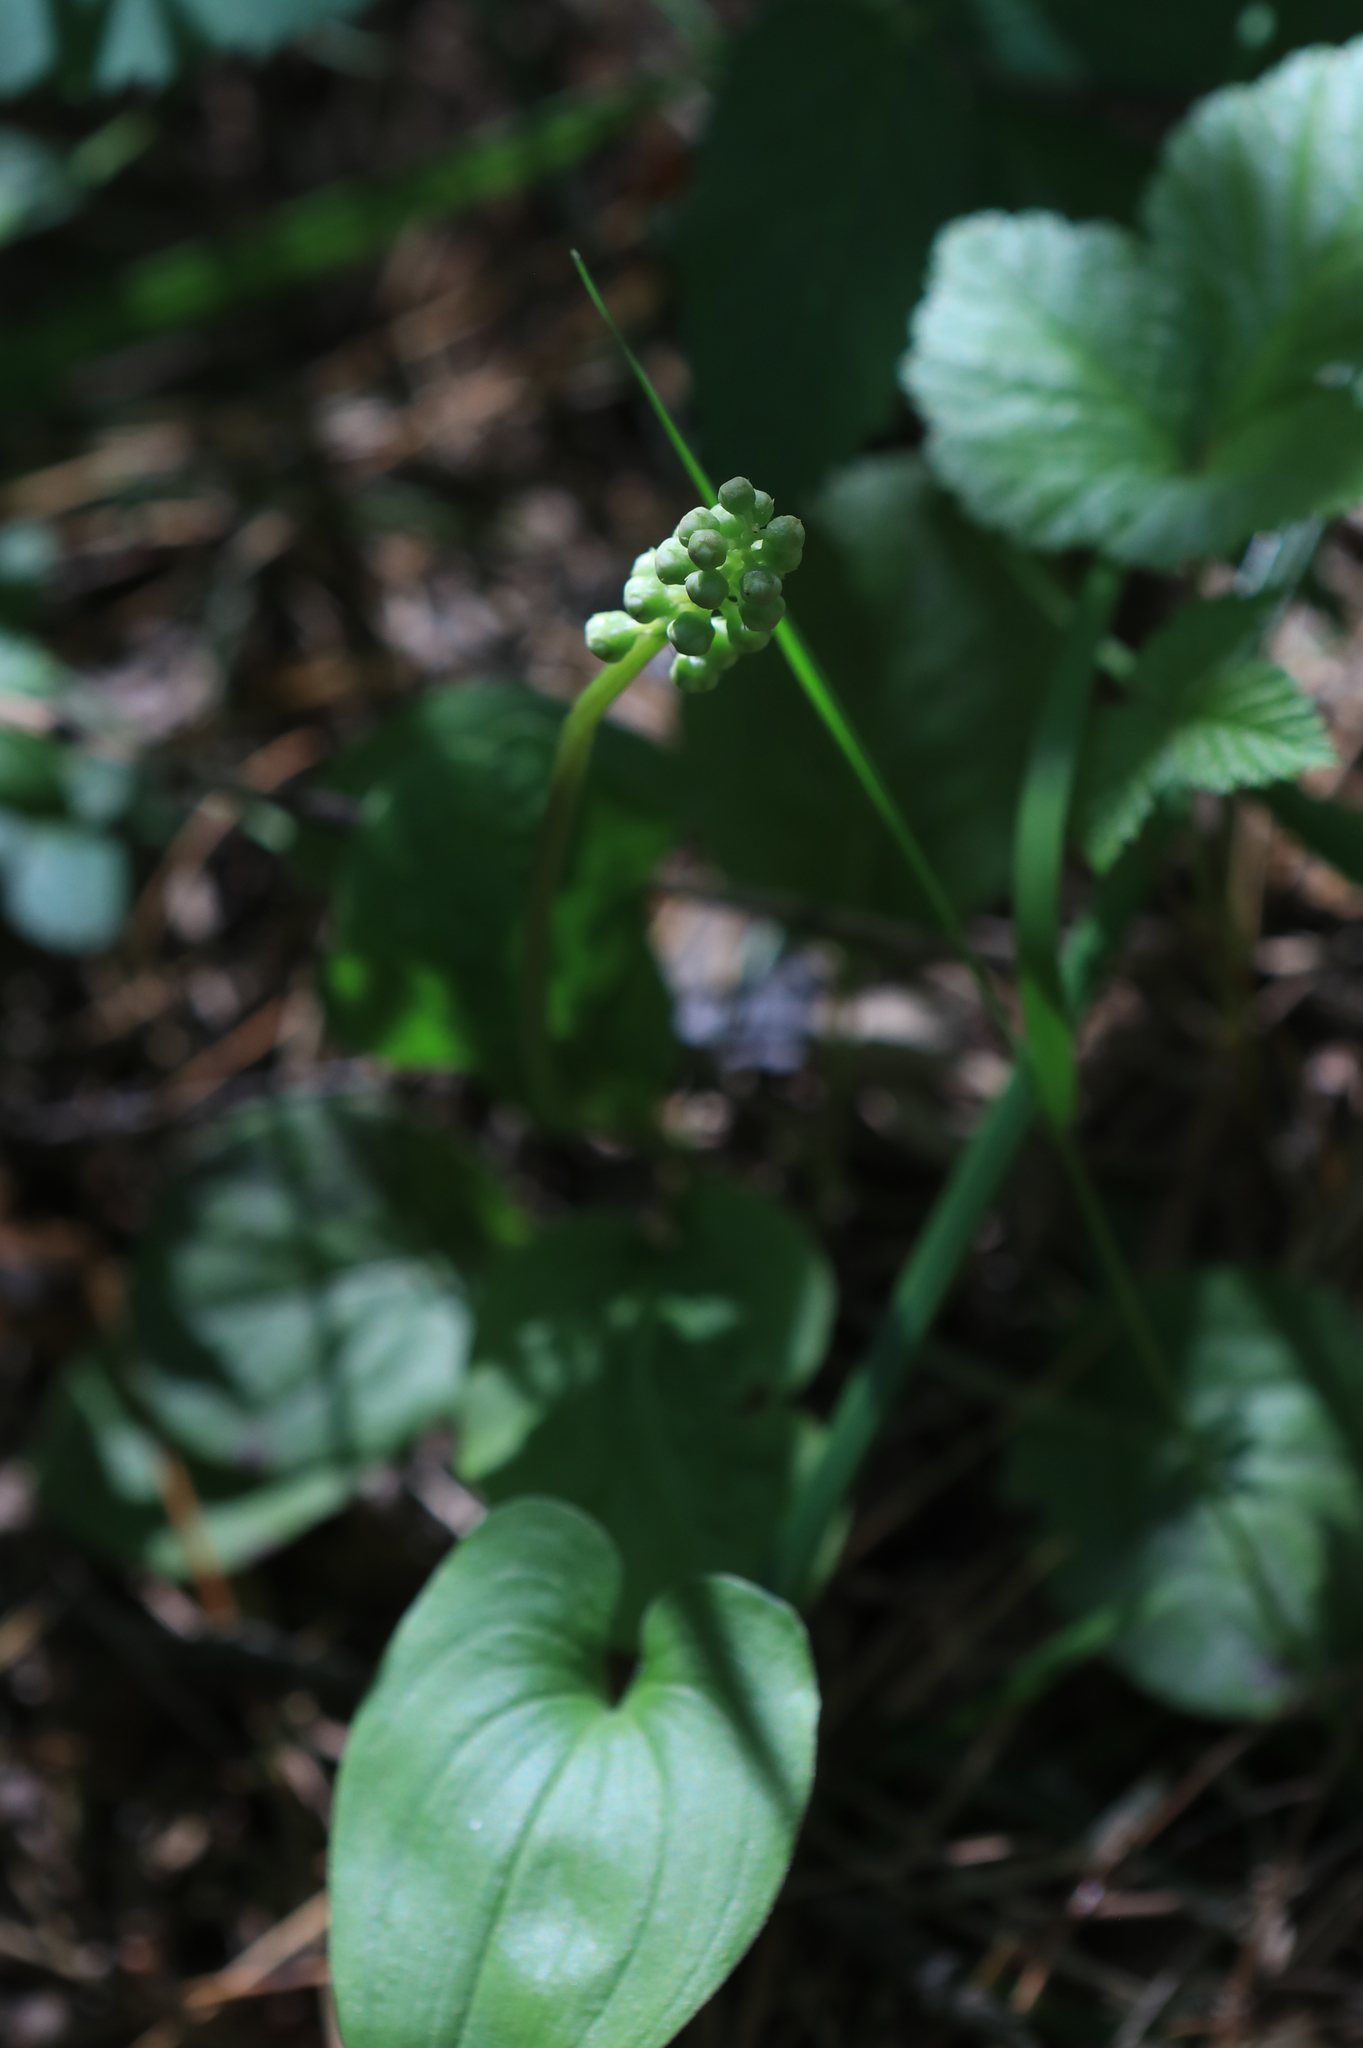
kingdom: Plantae
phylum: Tracheophyta
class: Magnoliopsida
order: Ericales
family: Ericaceae
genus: Pyrola
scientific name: Pyrola minor
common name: Common wintergreen
